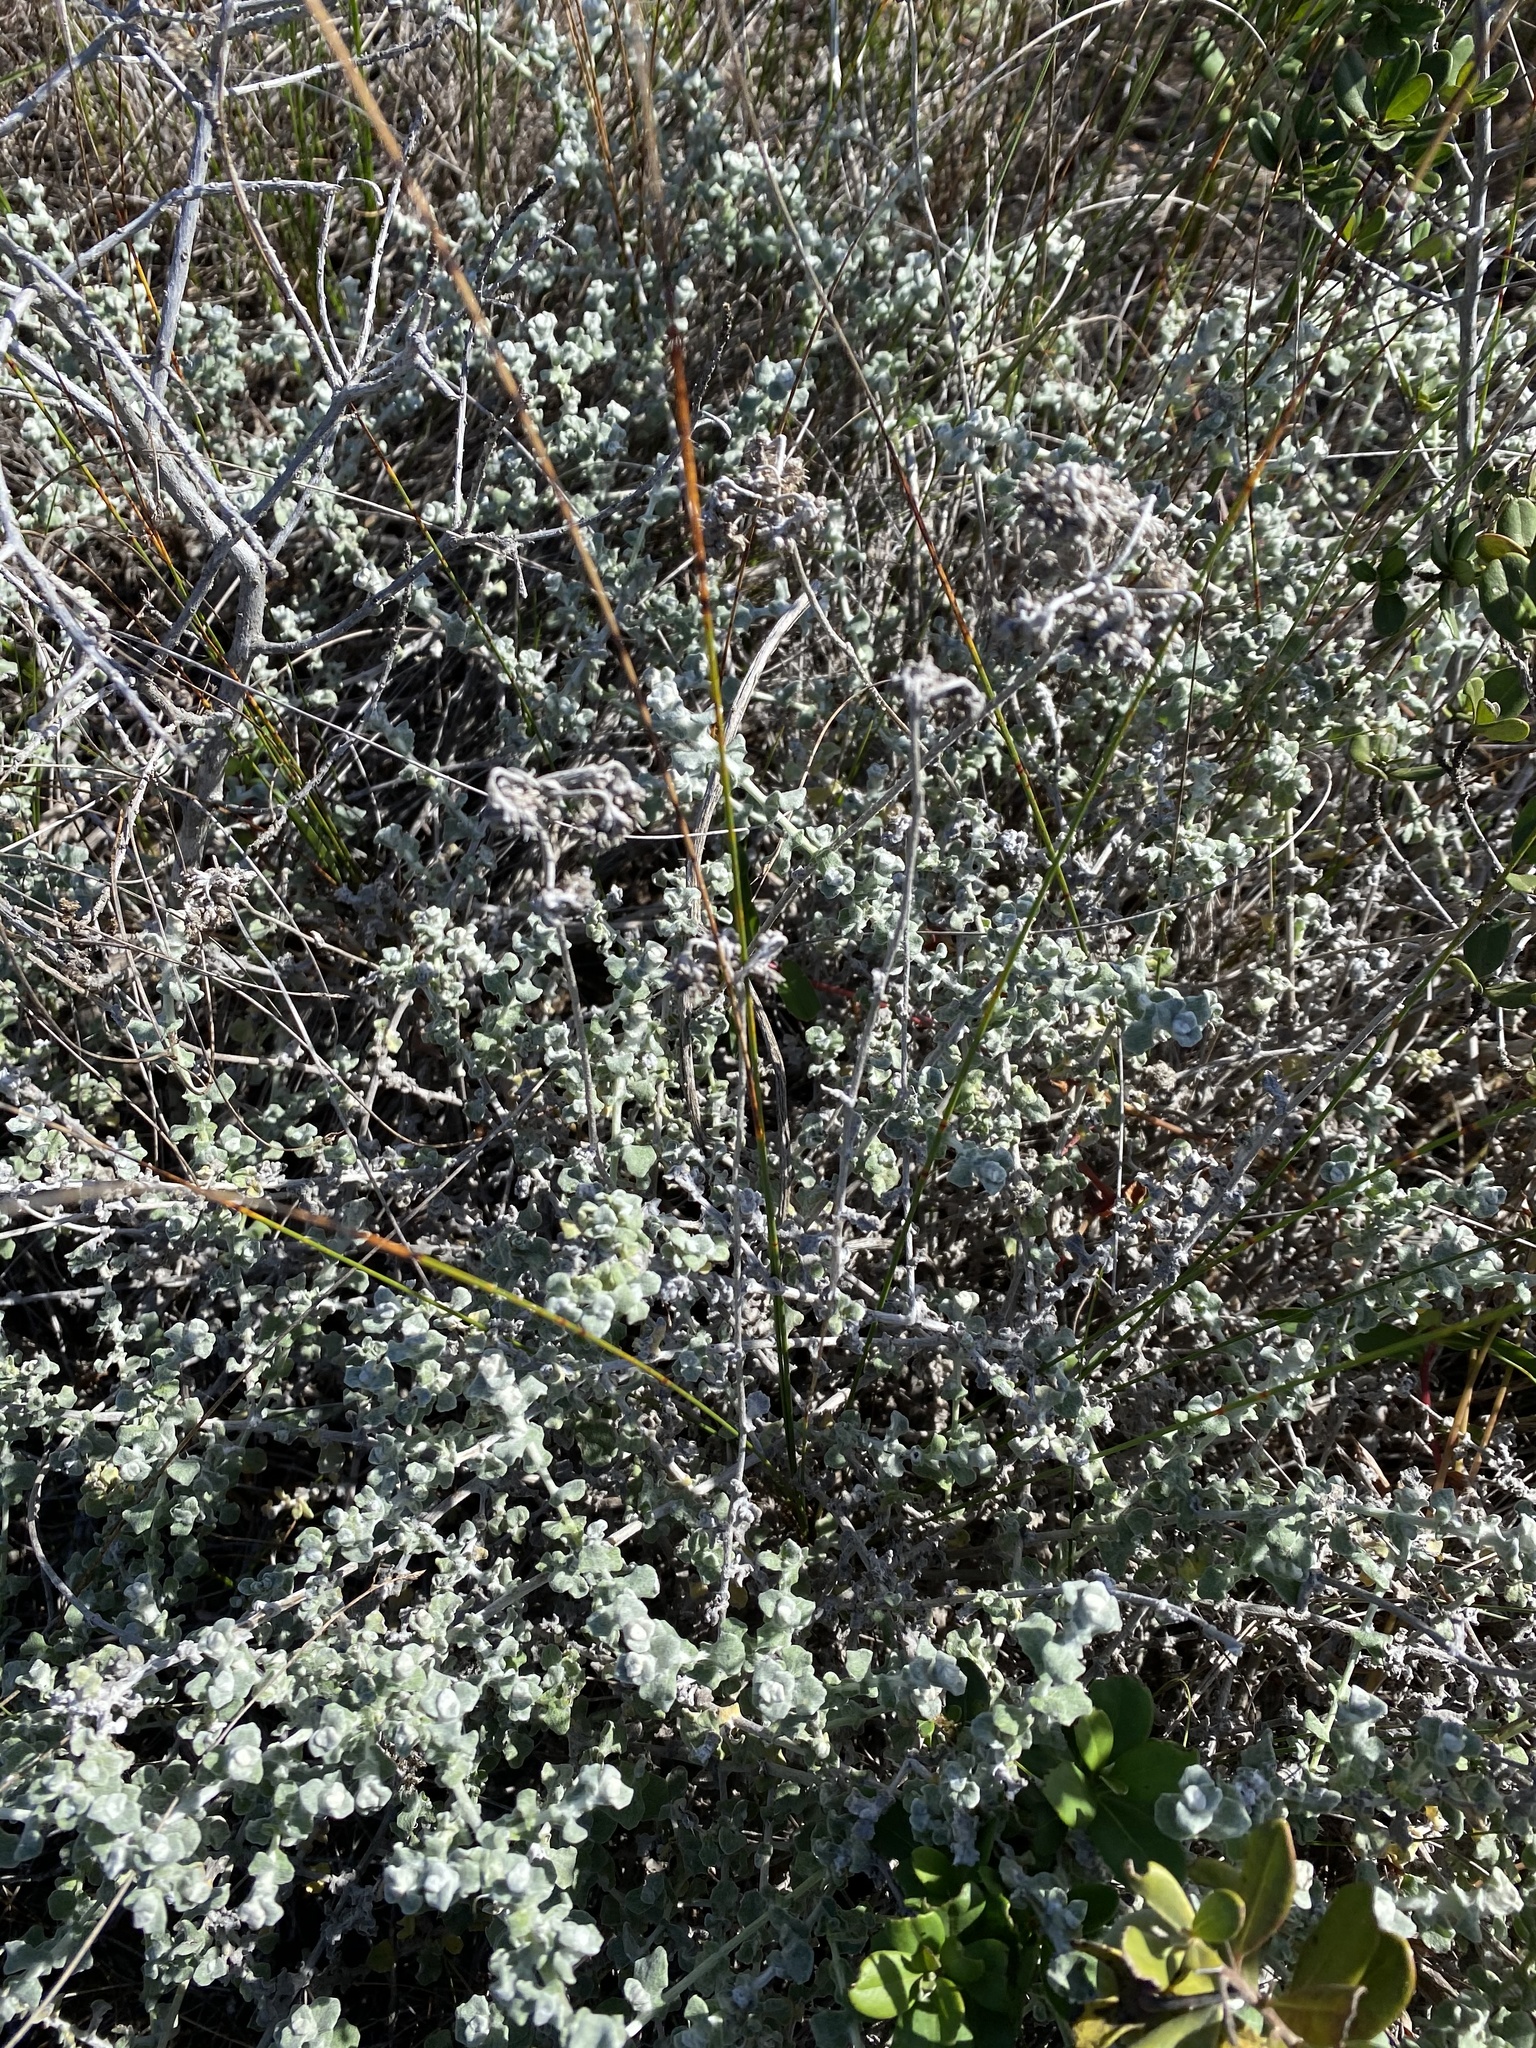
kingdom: Plantae
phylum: Tracheophyta
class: Magnoliopsida
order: Asterales
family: Asteraceae
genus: Helichrysum
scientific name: Helichrysum patulum
